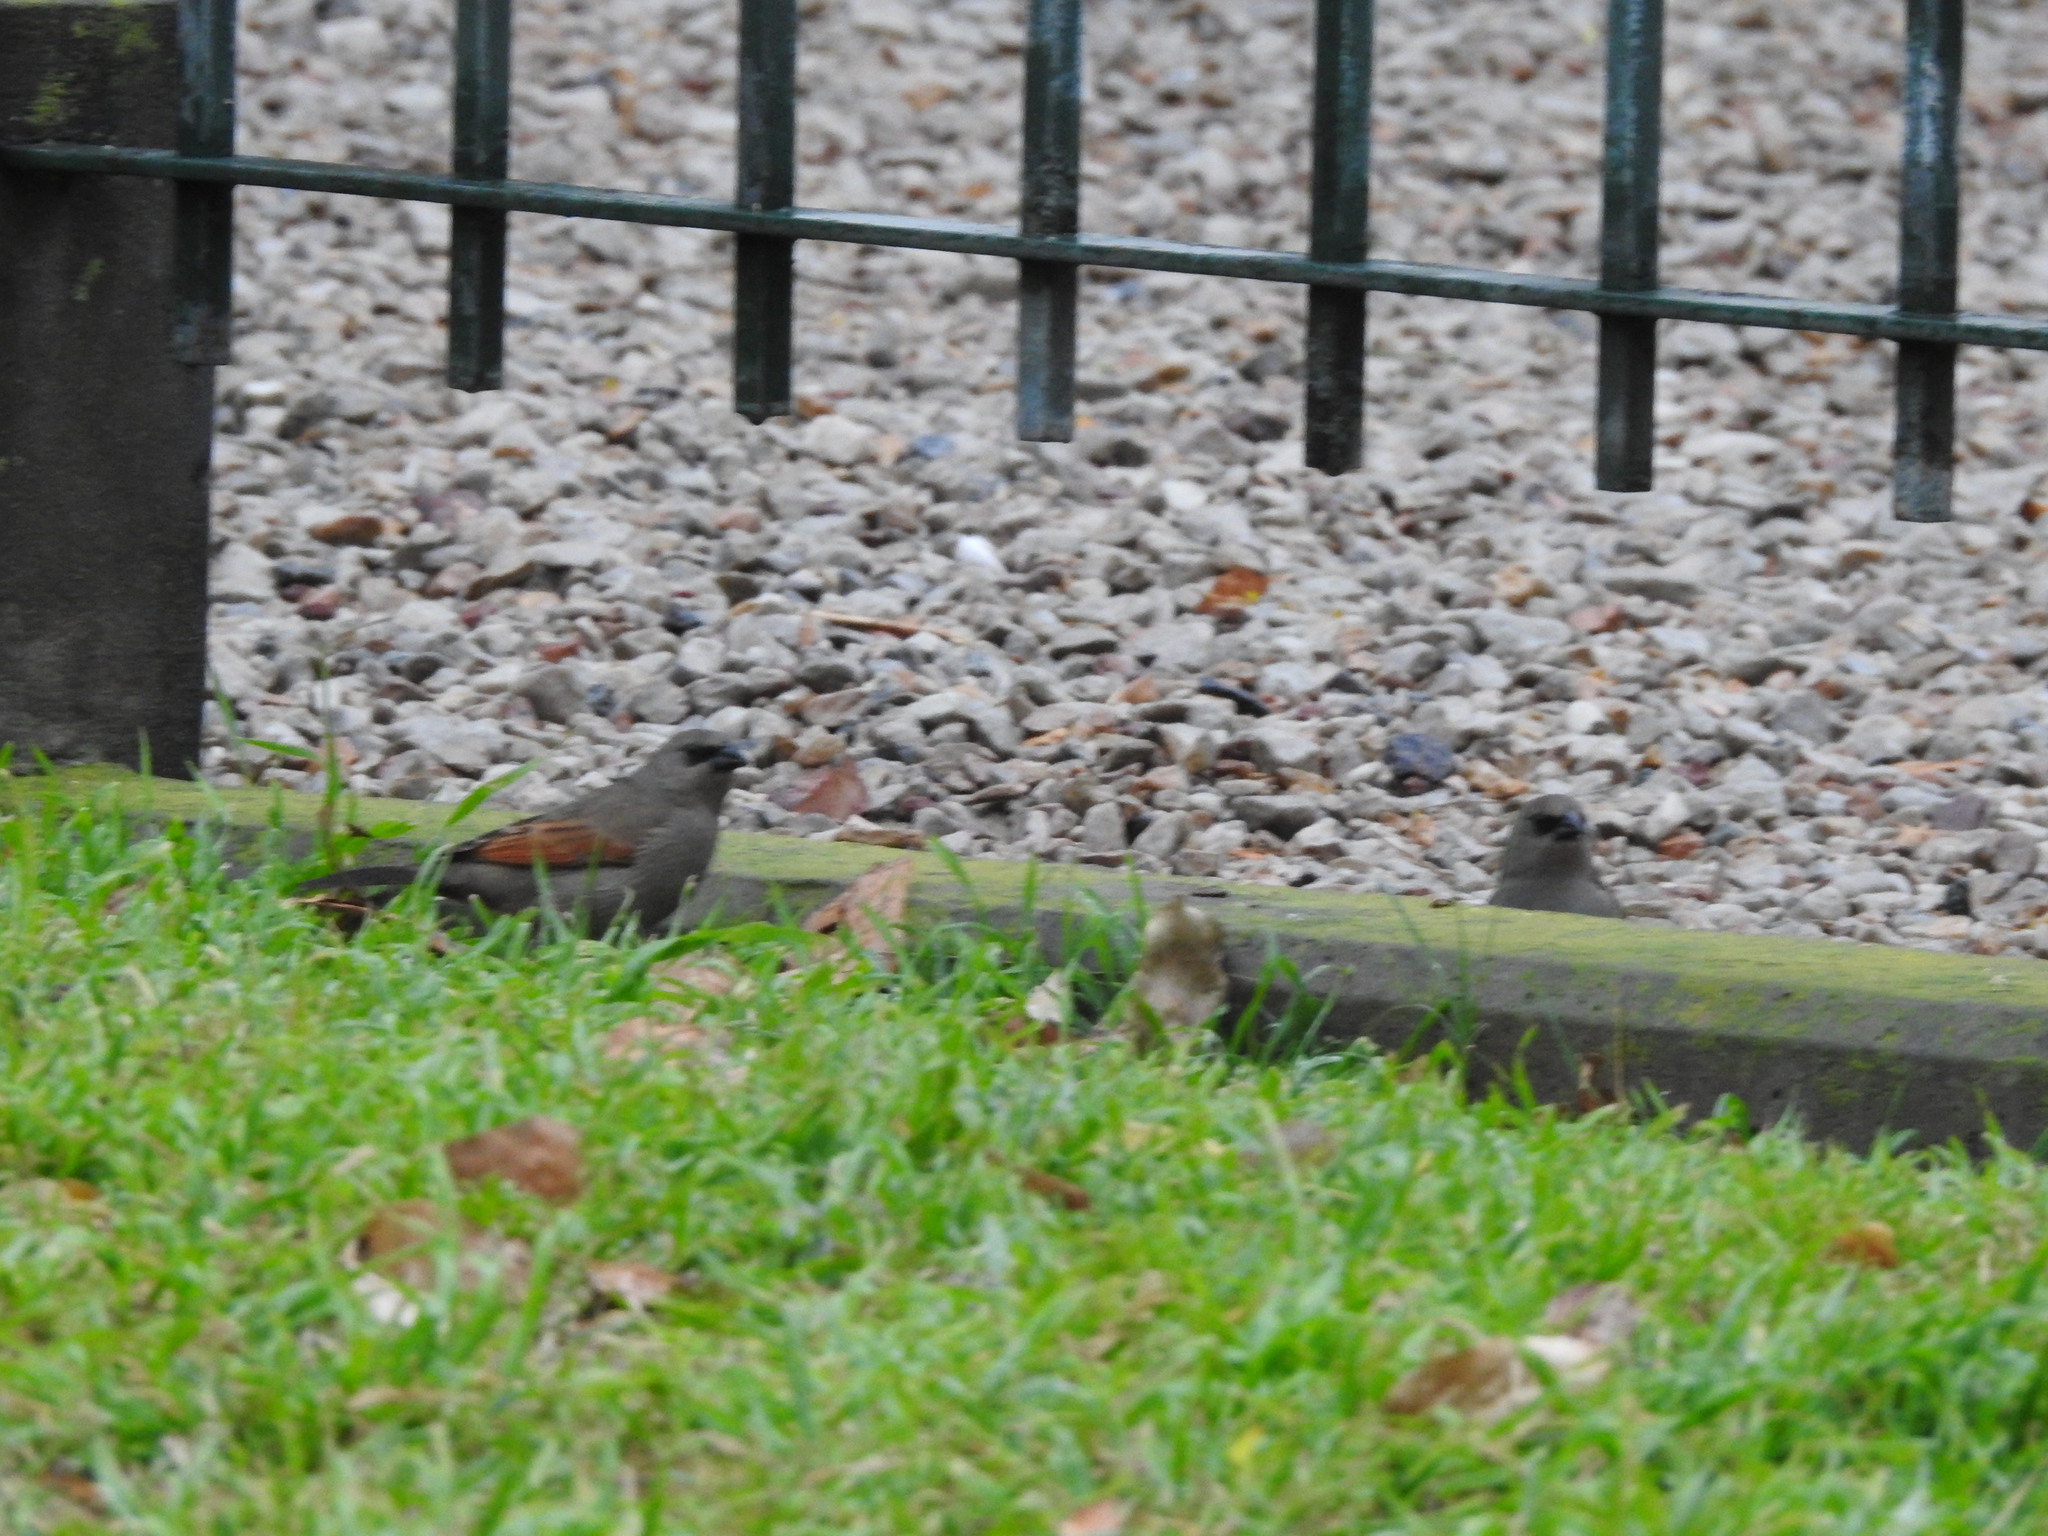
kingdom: Animalia
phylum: Chordata
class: Aves
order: Passeriformes
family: Icteridae
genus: Agelaioides
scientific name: Agelaioides badius
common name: Baywing
